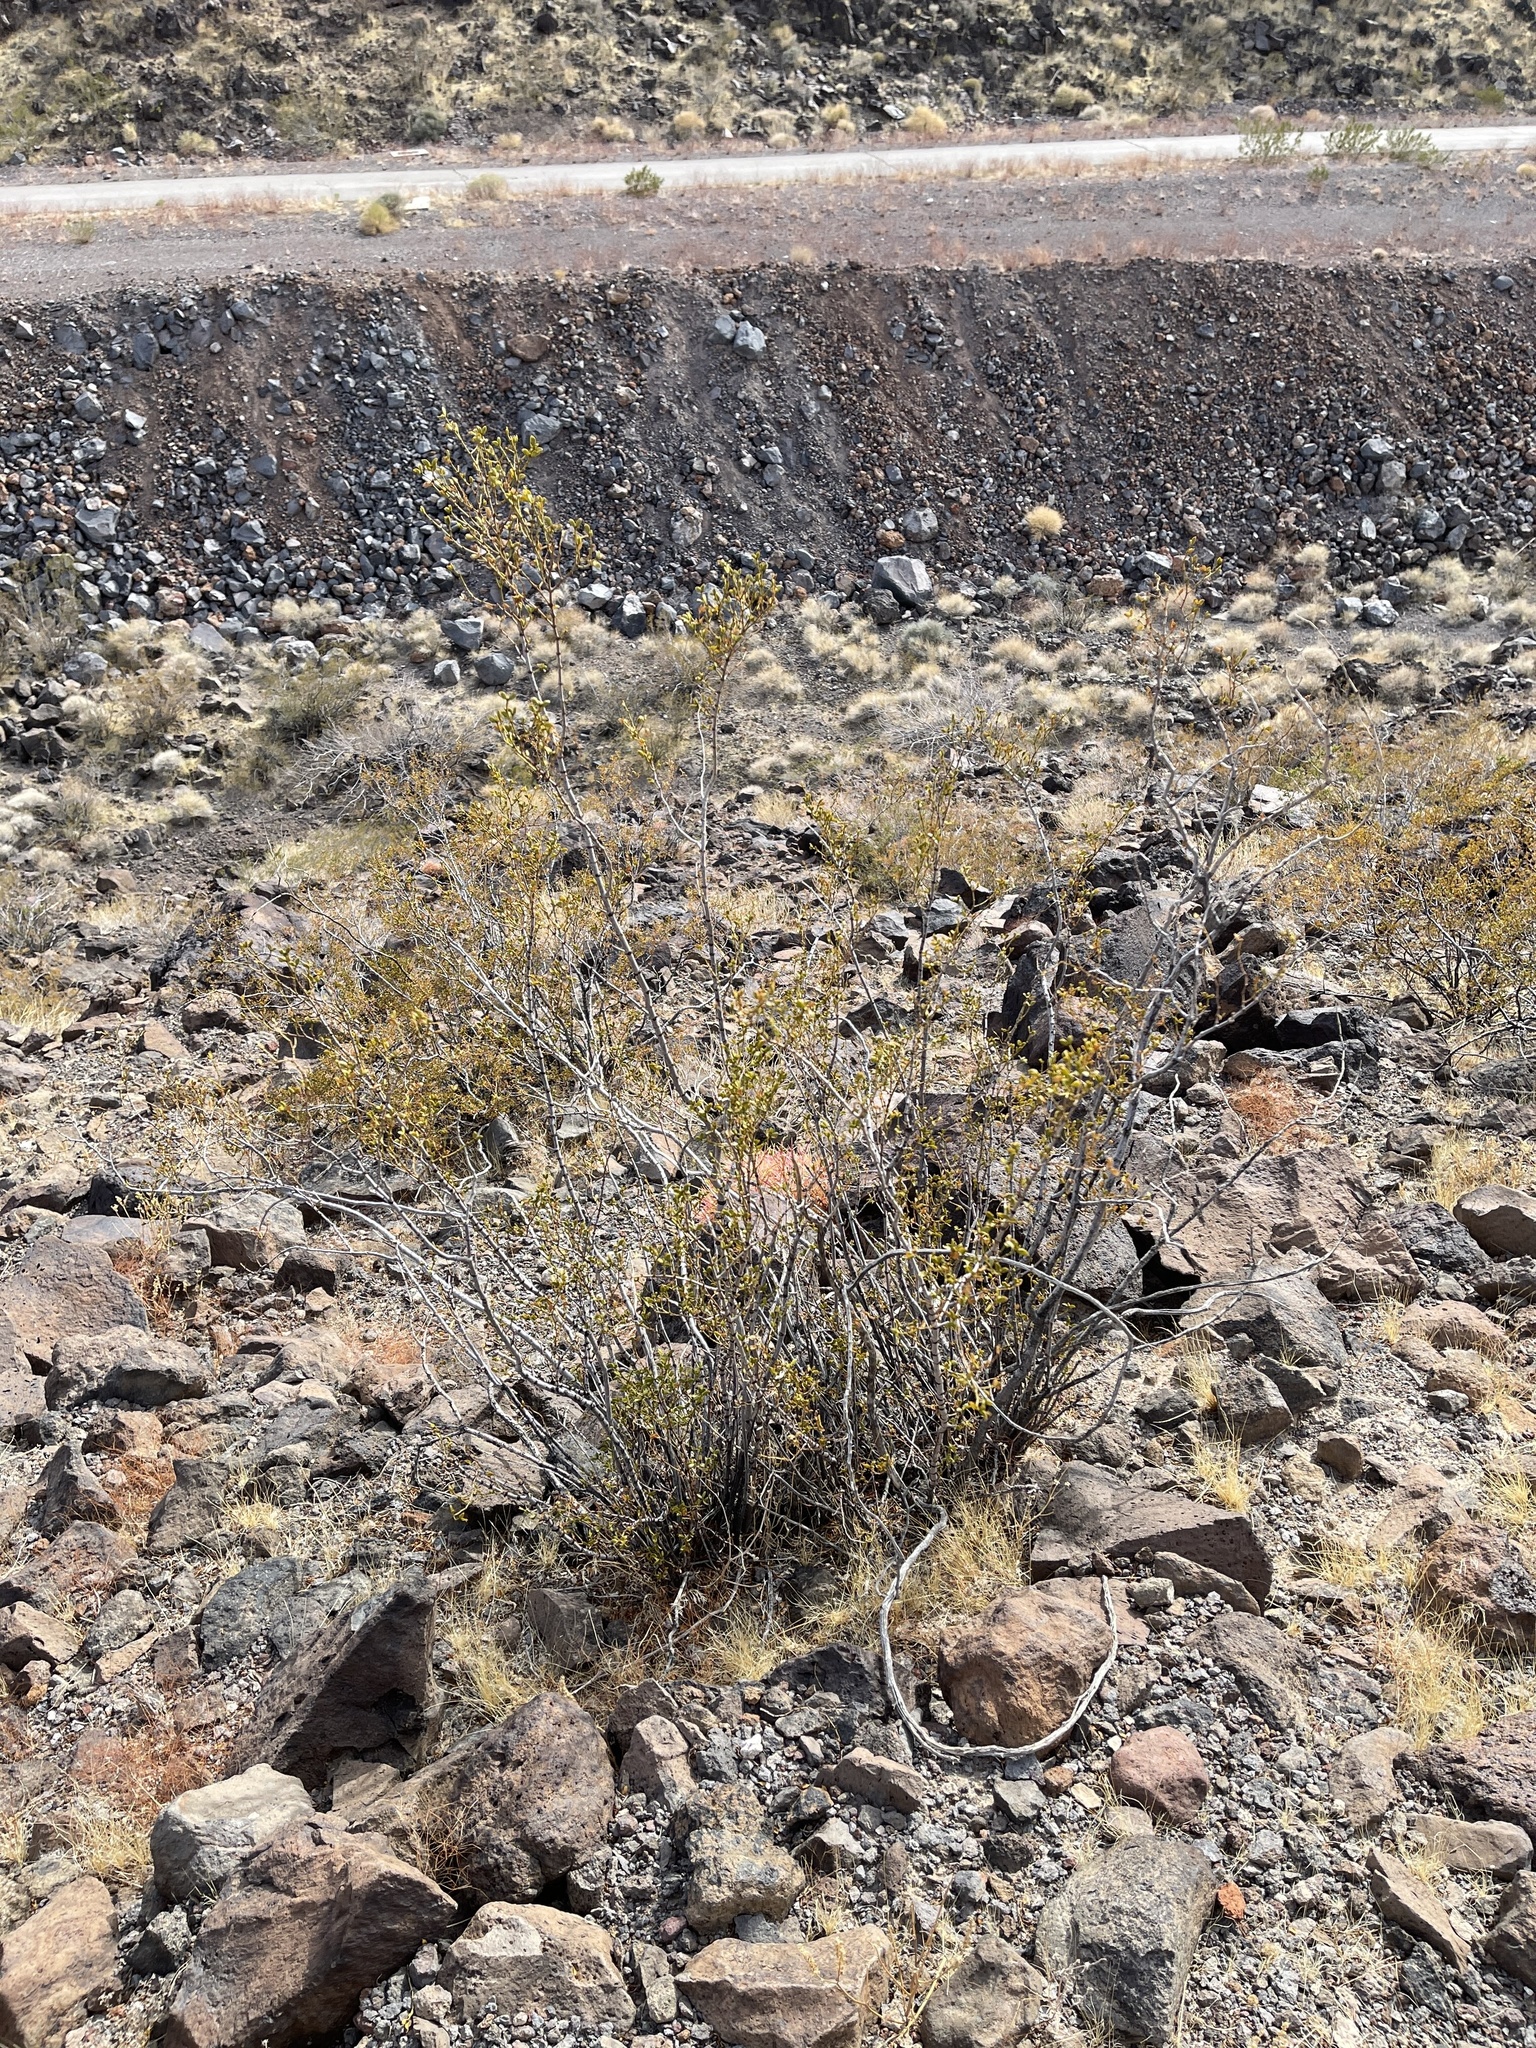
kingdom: Plantae
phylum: Tracheophyta
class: Magnoliopsida
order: Zygophyllales
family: Zygophyllaceae
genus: Larrea
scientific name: Larrea tridentata
